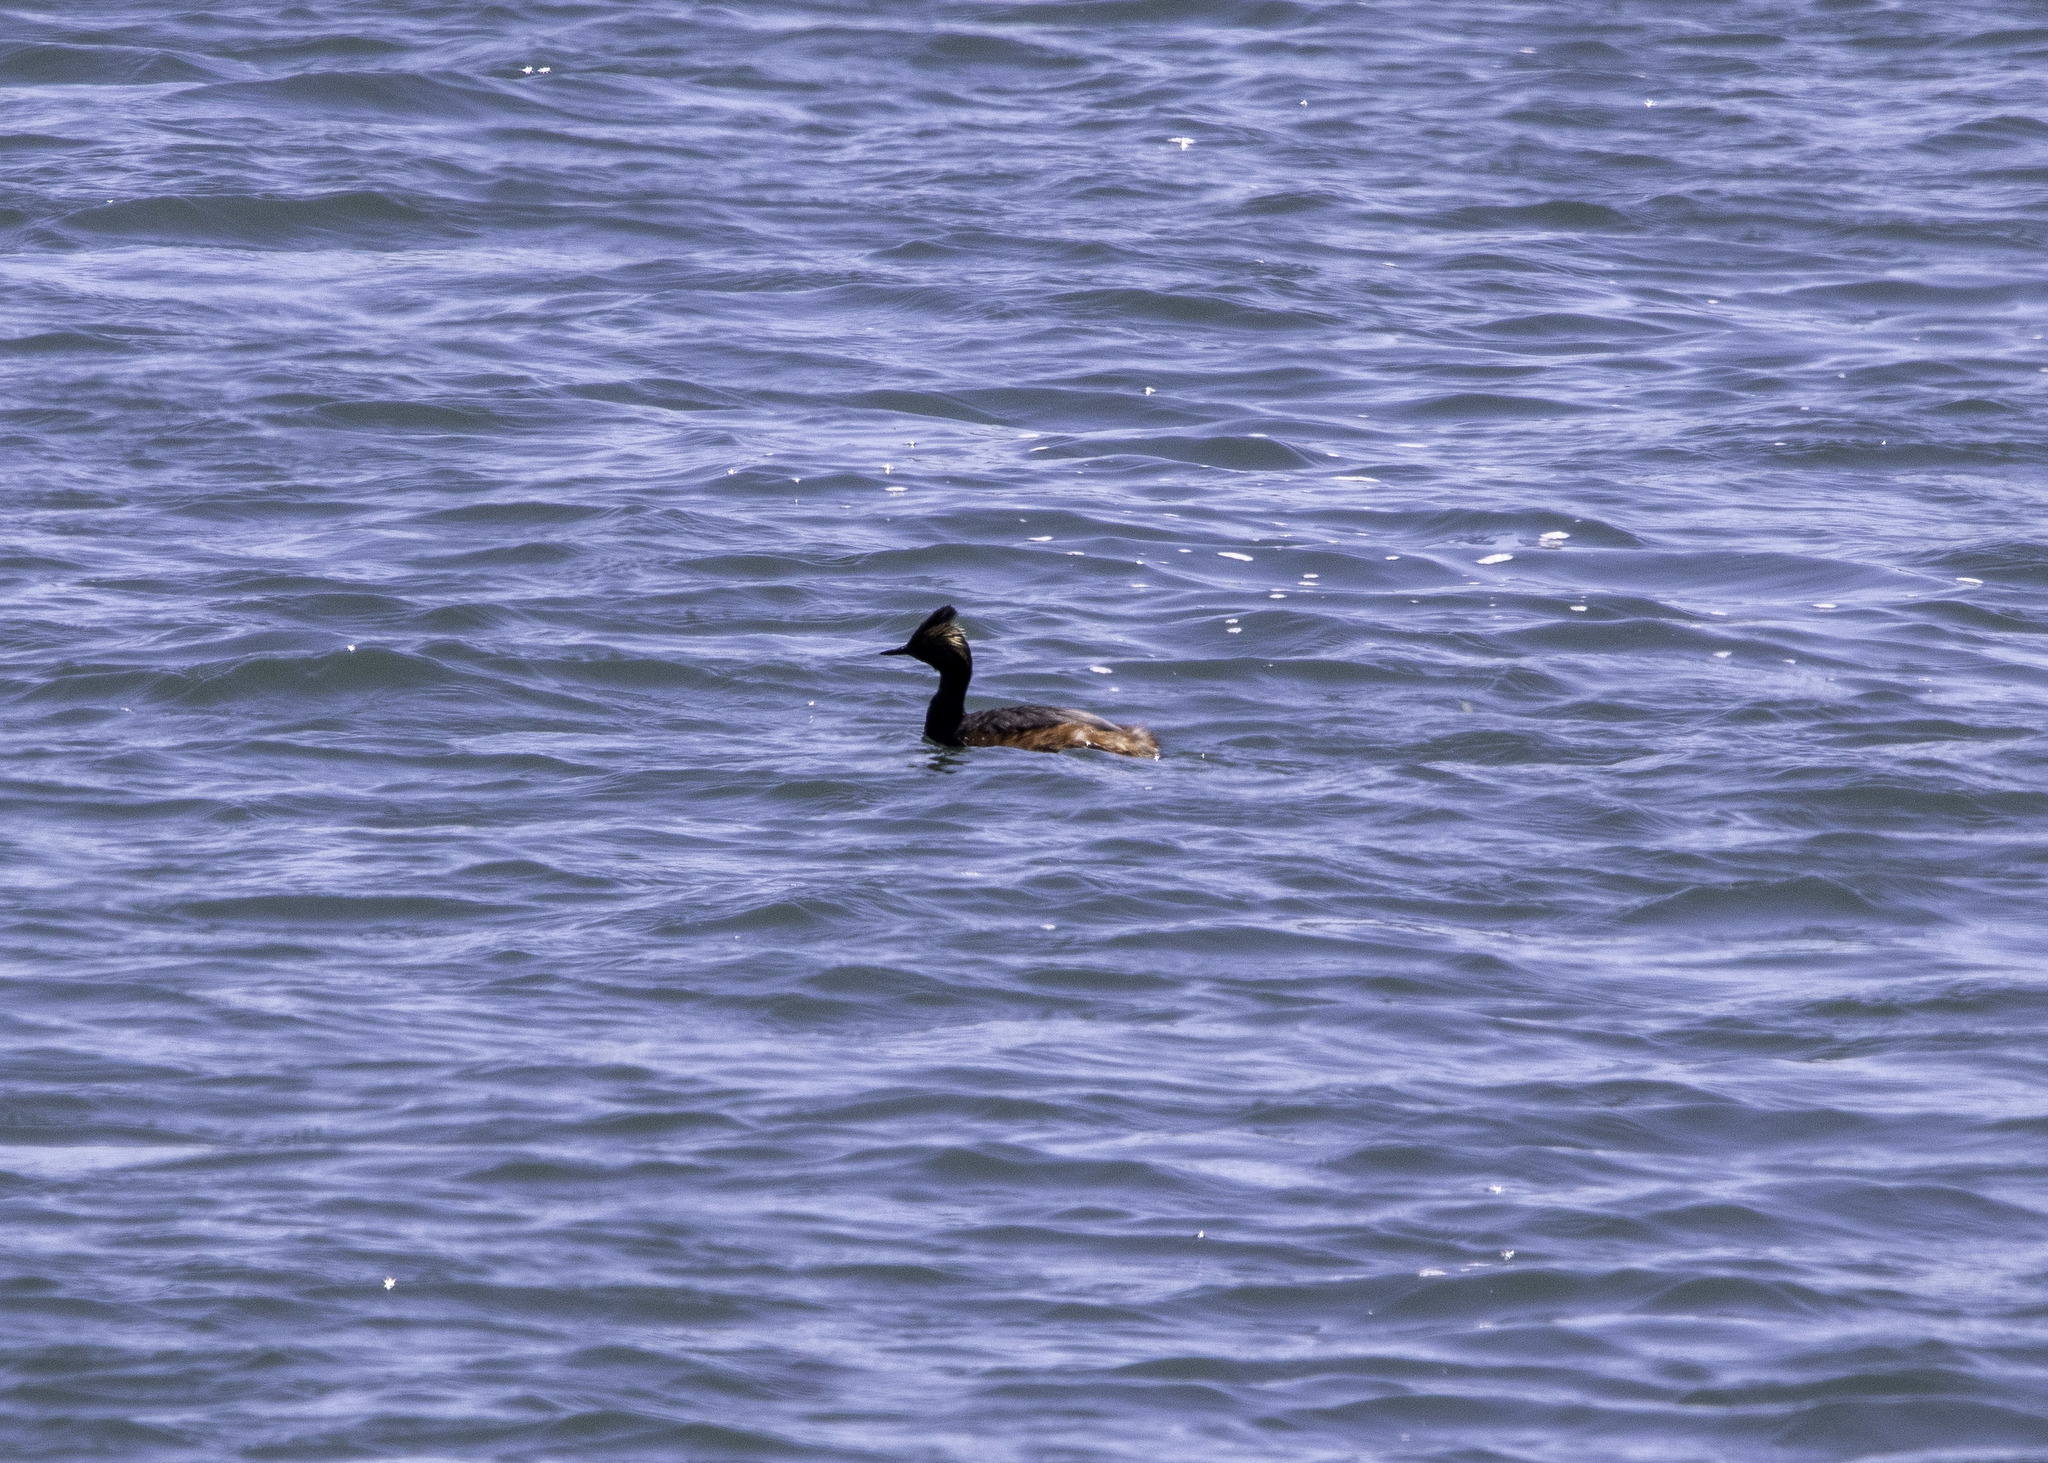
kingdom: Animalia
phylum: Chordata
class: Aves
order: Podicipediformes
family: Podicipedidae
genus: Podiceps
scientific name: Podiceps nigricollis
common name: Black-necked grebe
